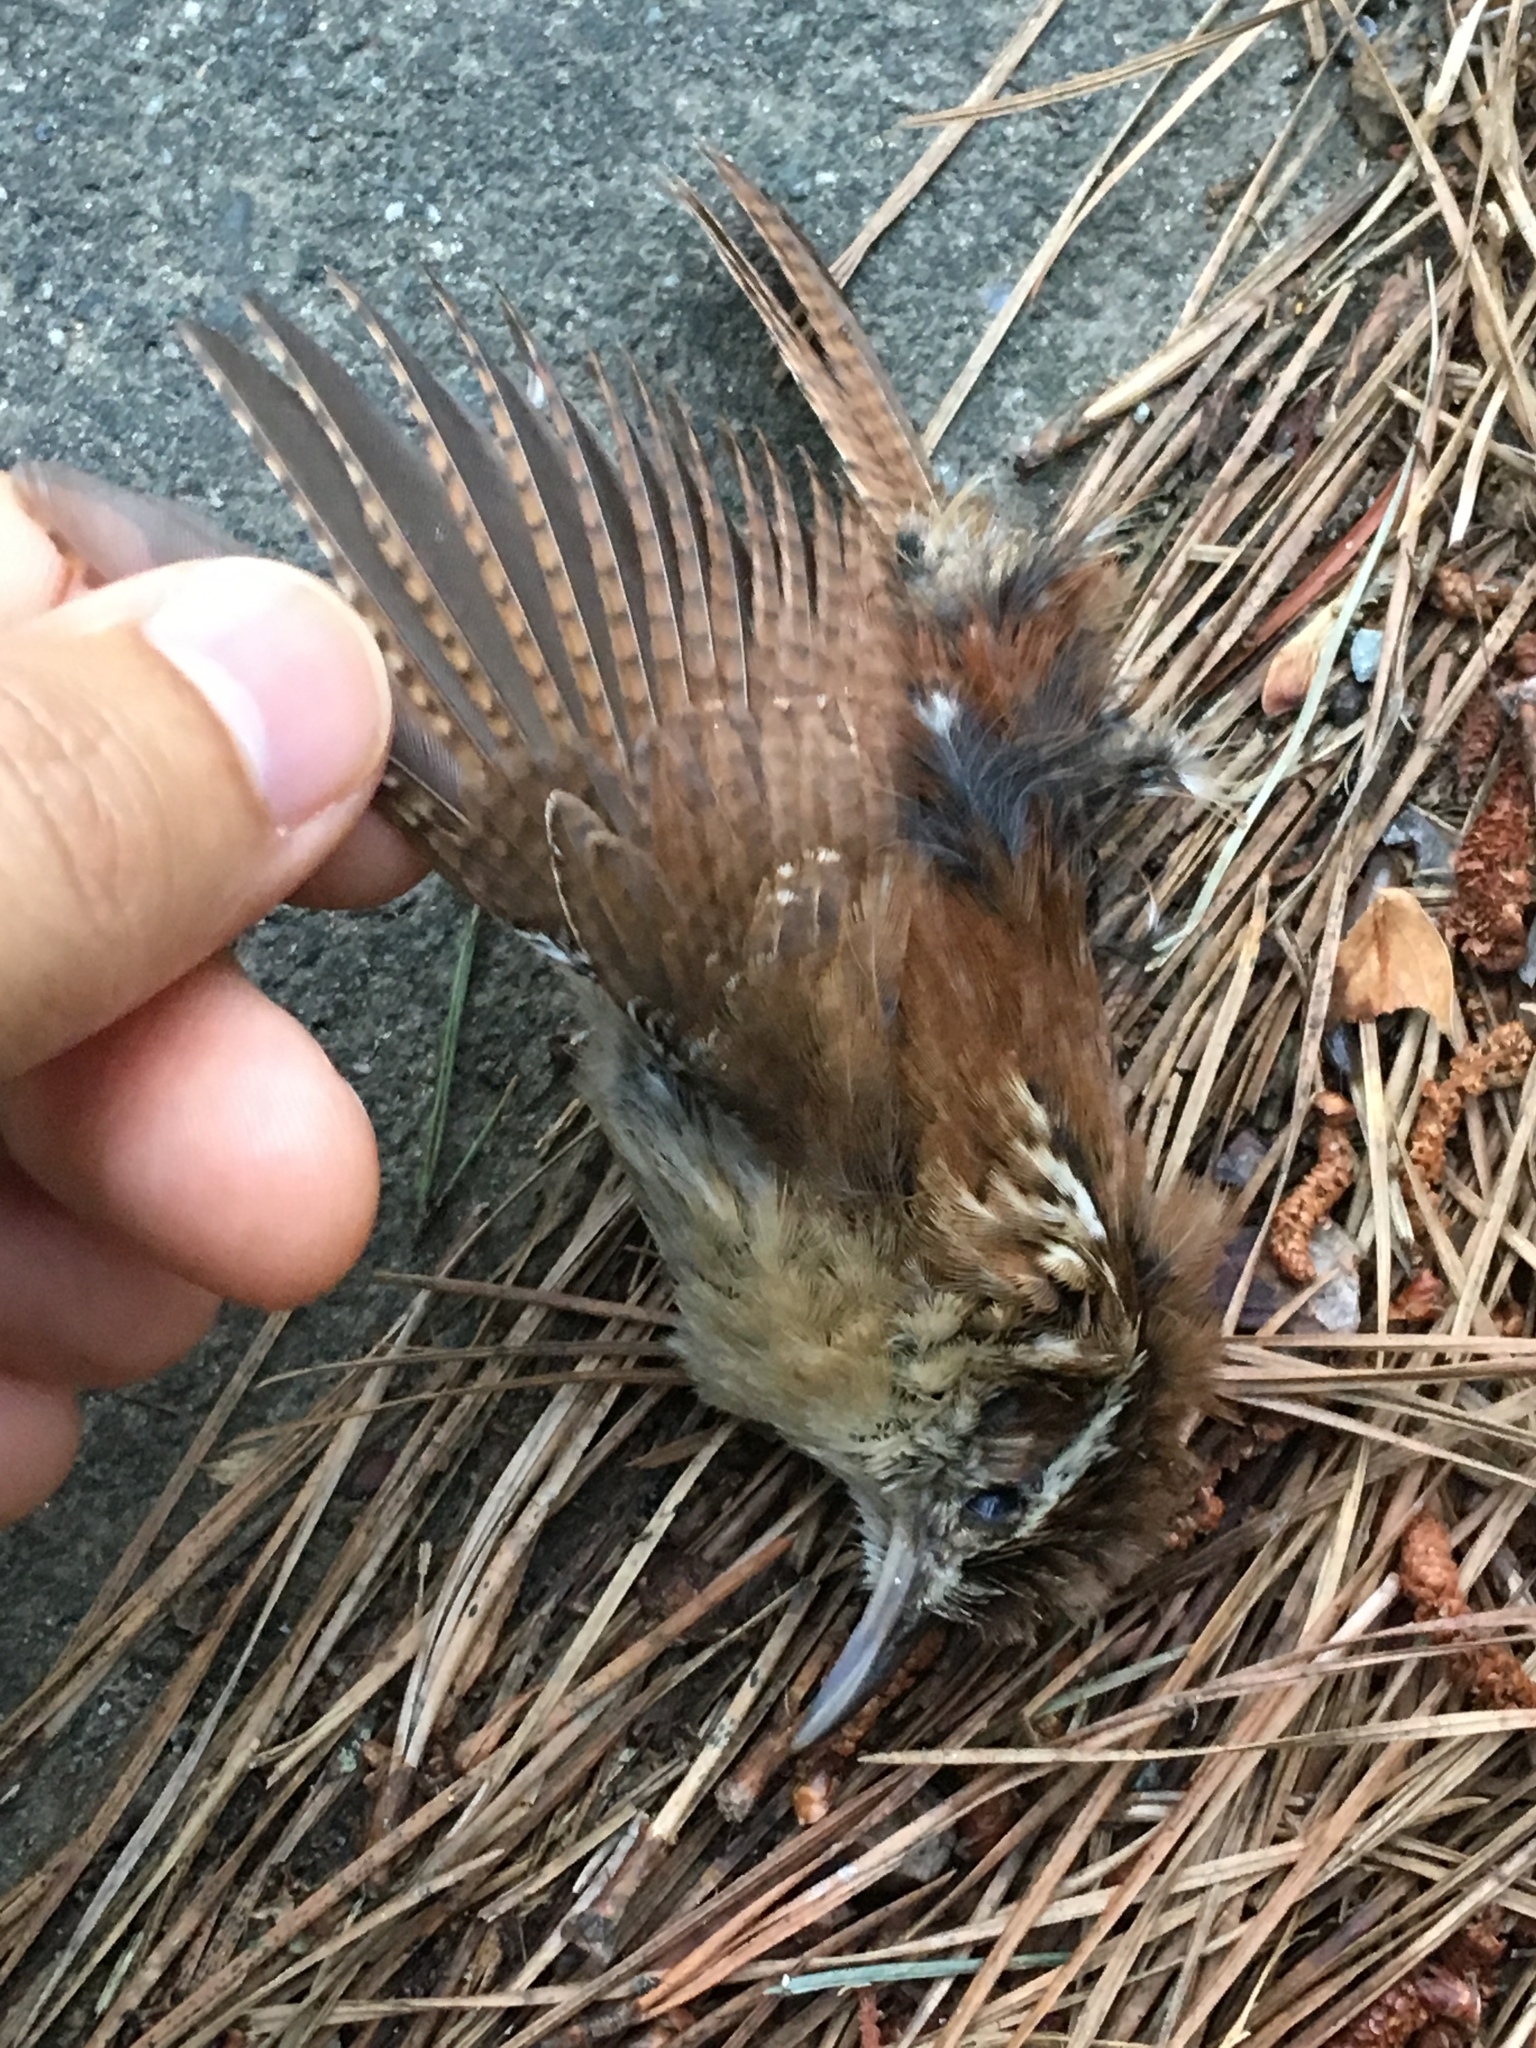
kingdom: Animalia
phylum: Chordata
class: Aves
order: Passeriformes
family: Troglodytidae
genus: Thryothorus
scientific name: Thryothorus ludovicianus
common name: Carolina wren
